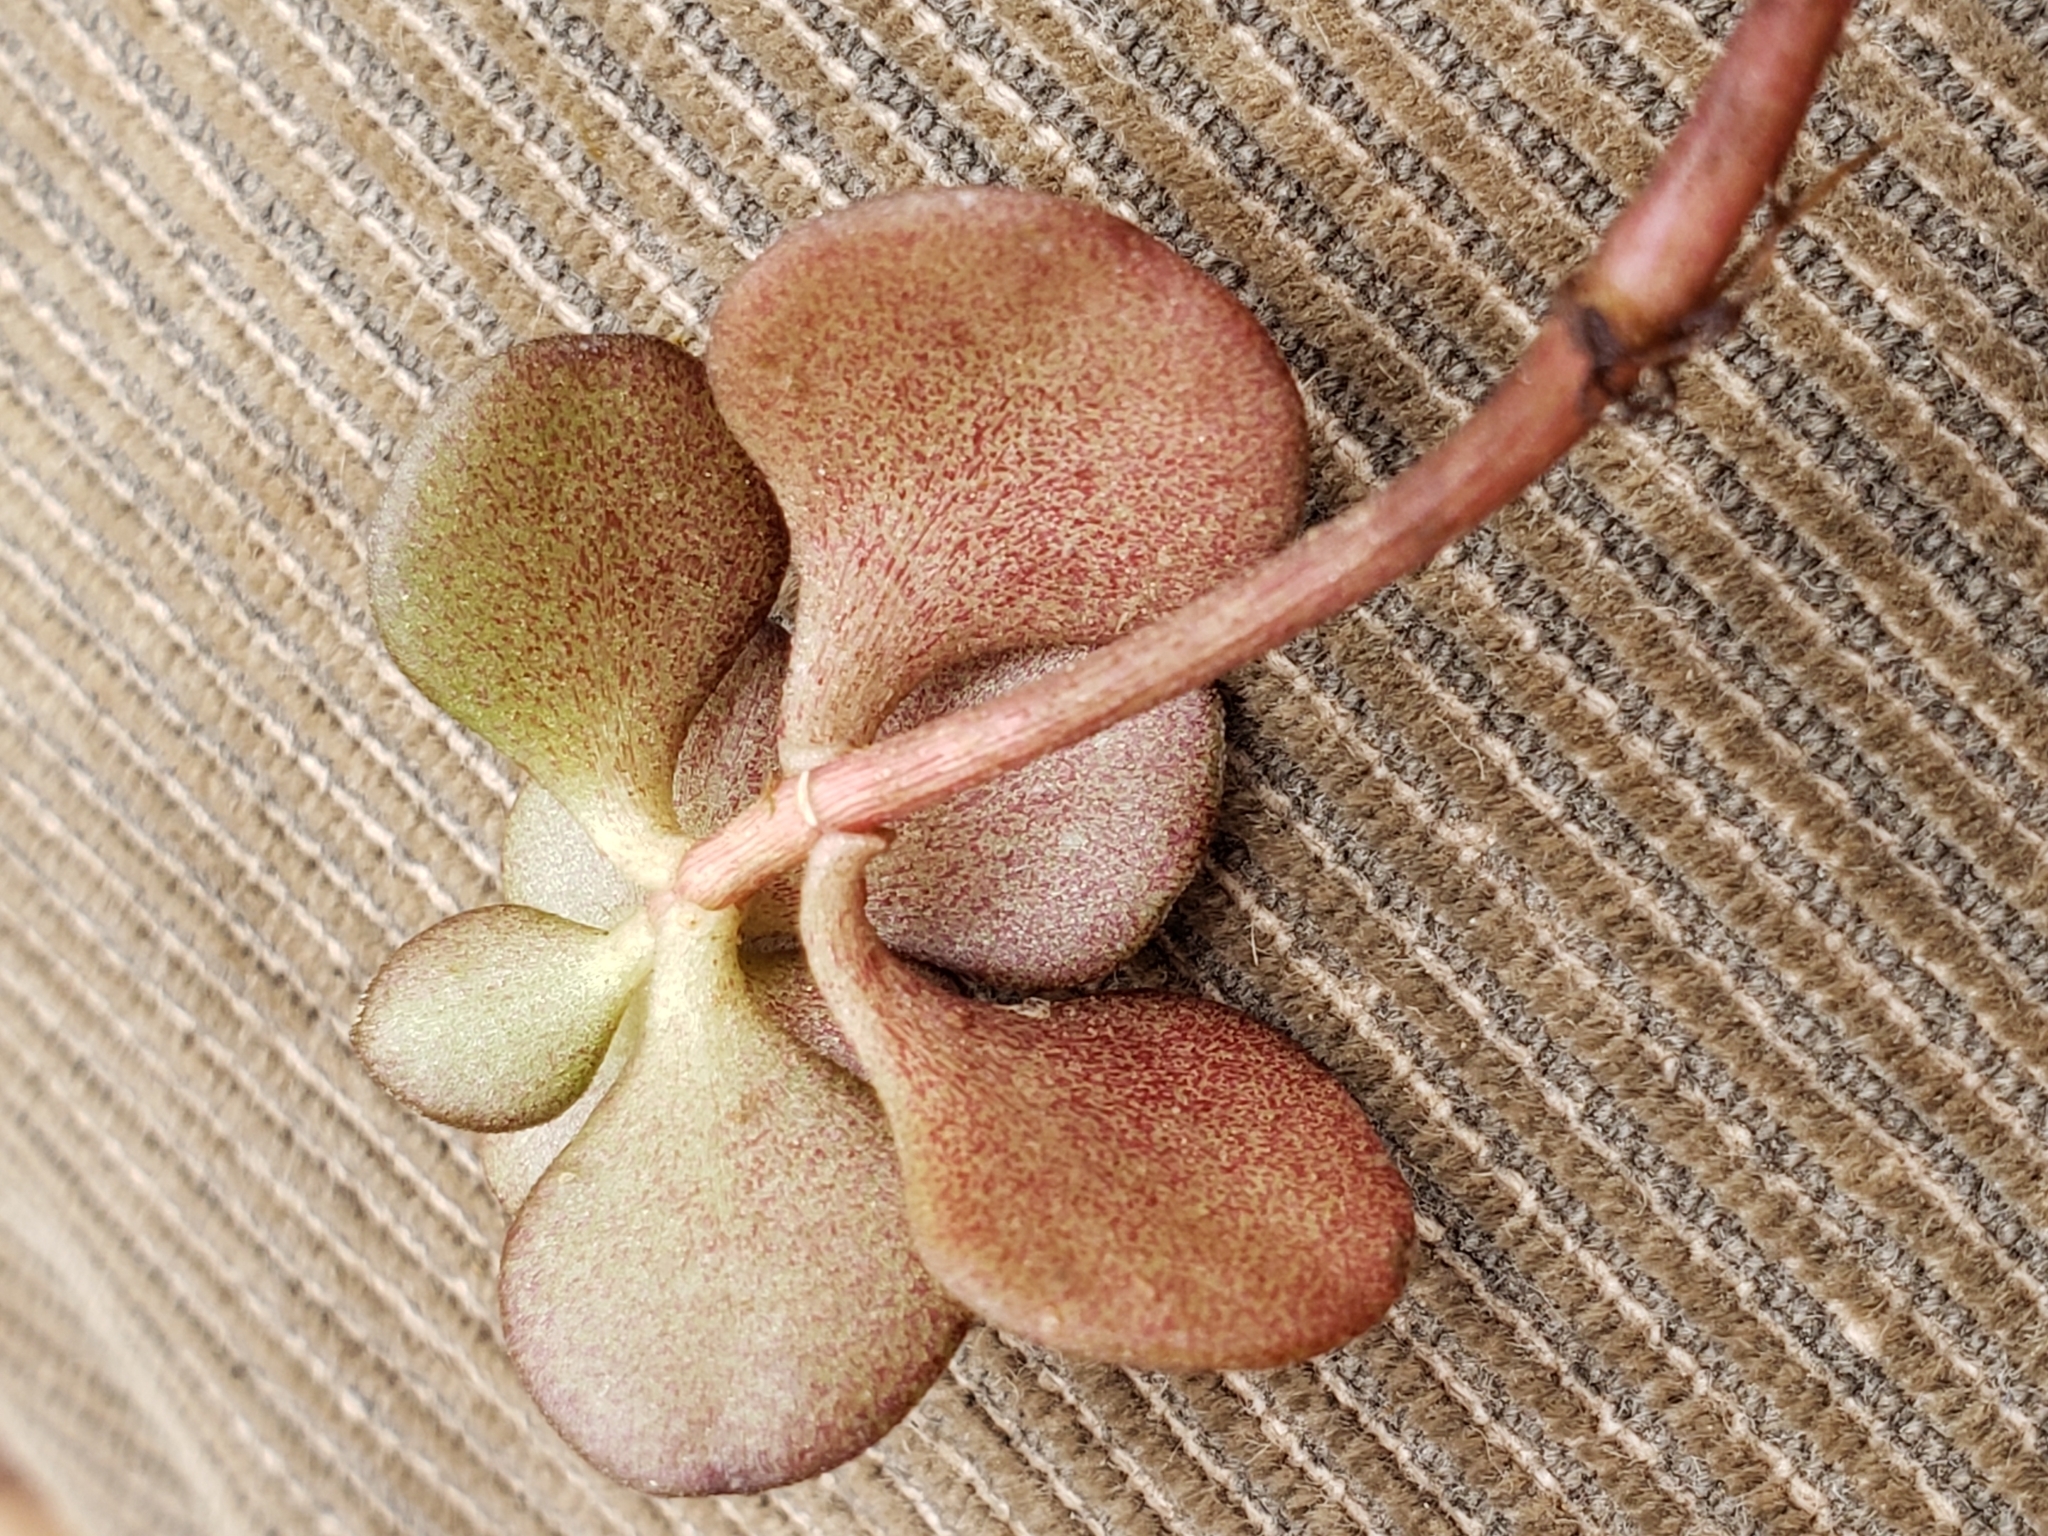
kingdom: Plantae
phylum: Tracheophyta
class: Magnoliopsida
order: Saxifragales
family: Crassulaceae
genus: Sedum
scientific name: Sedum ternatum
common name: Wild stonecrop
